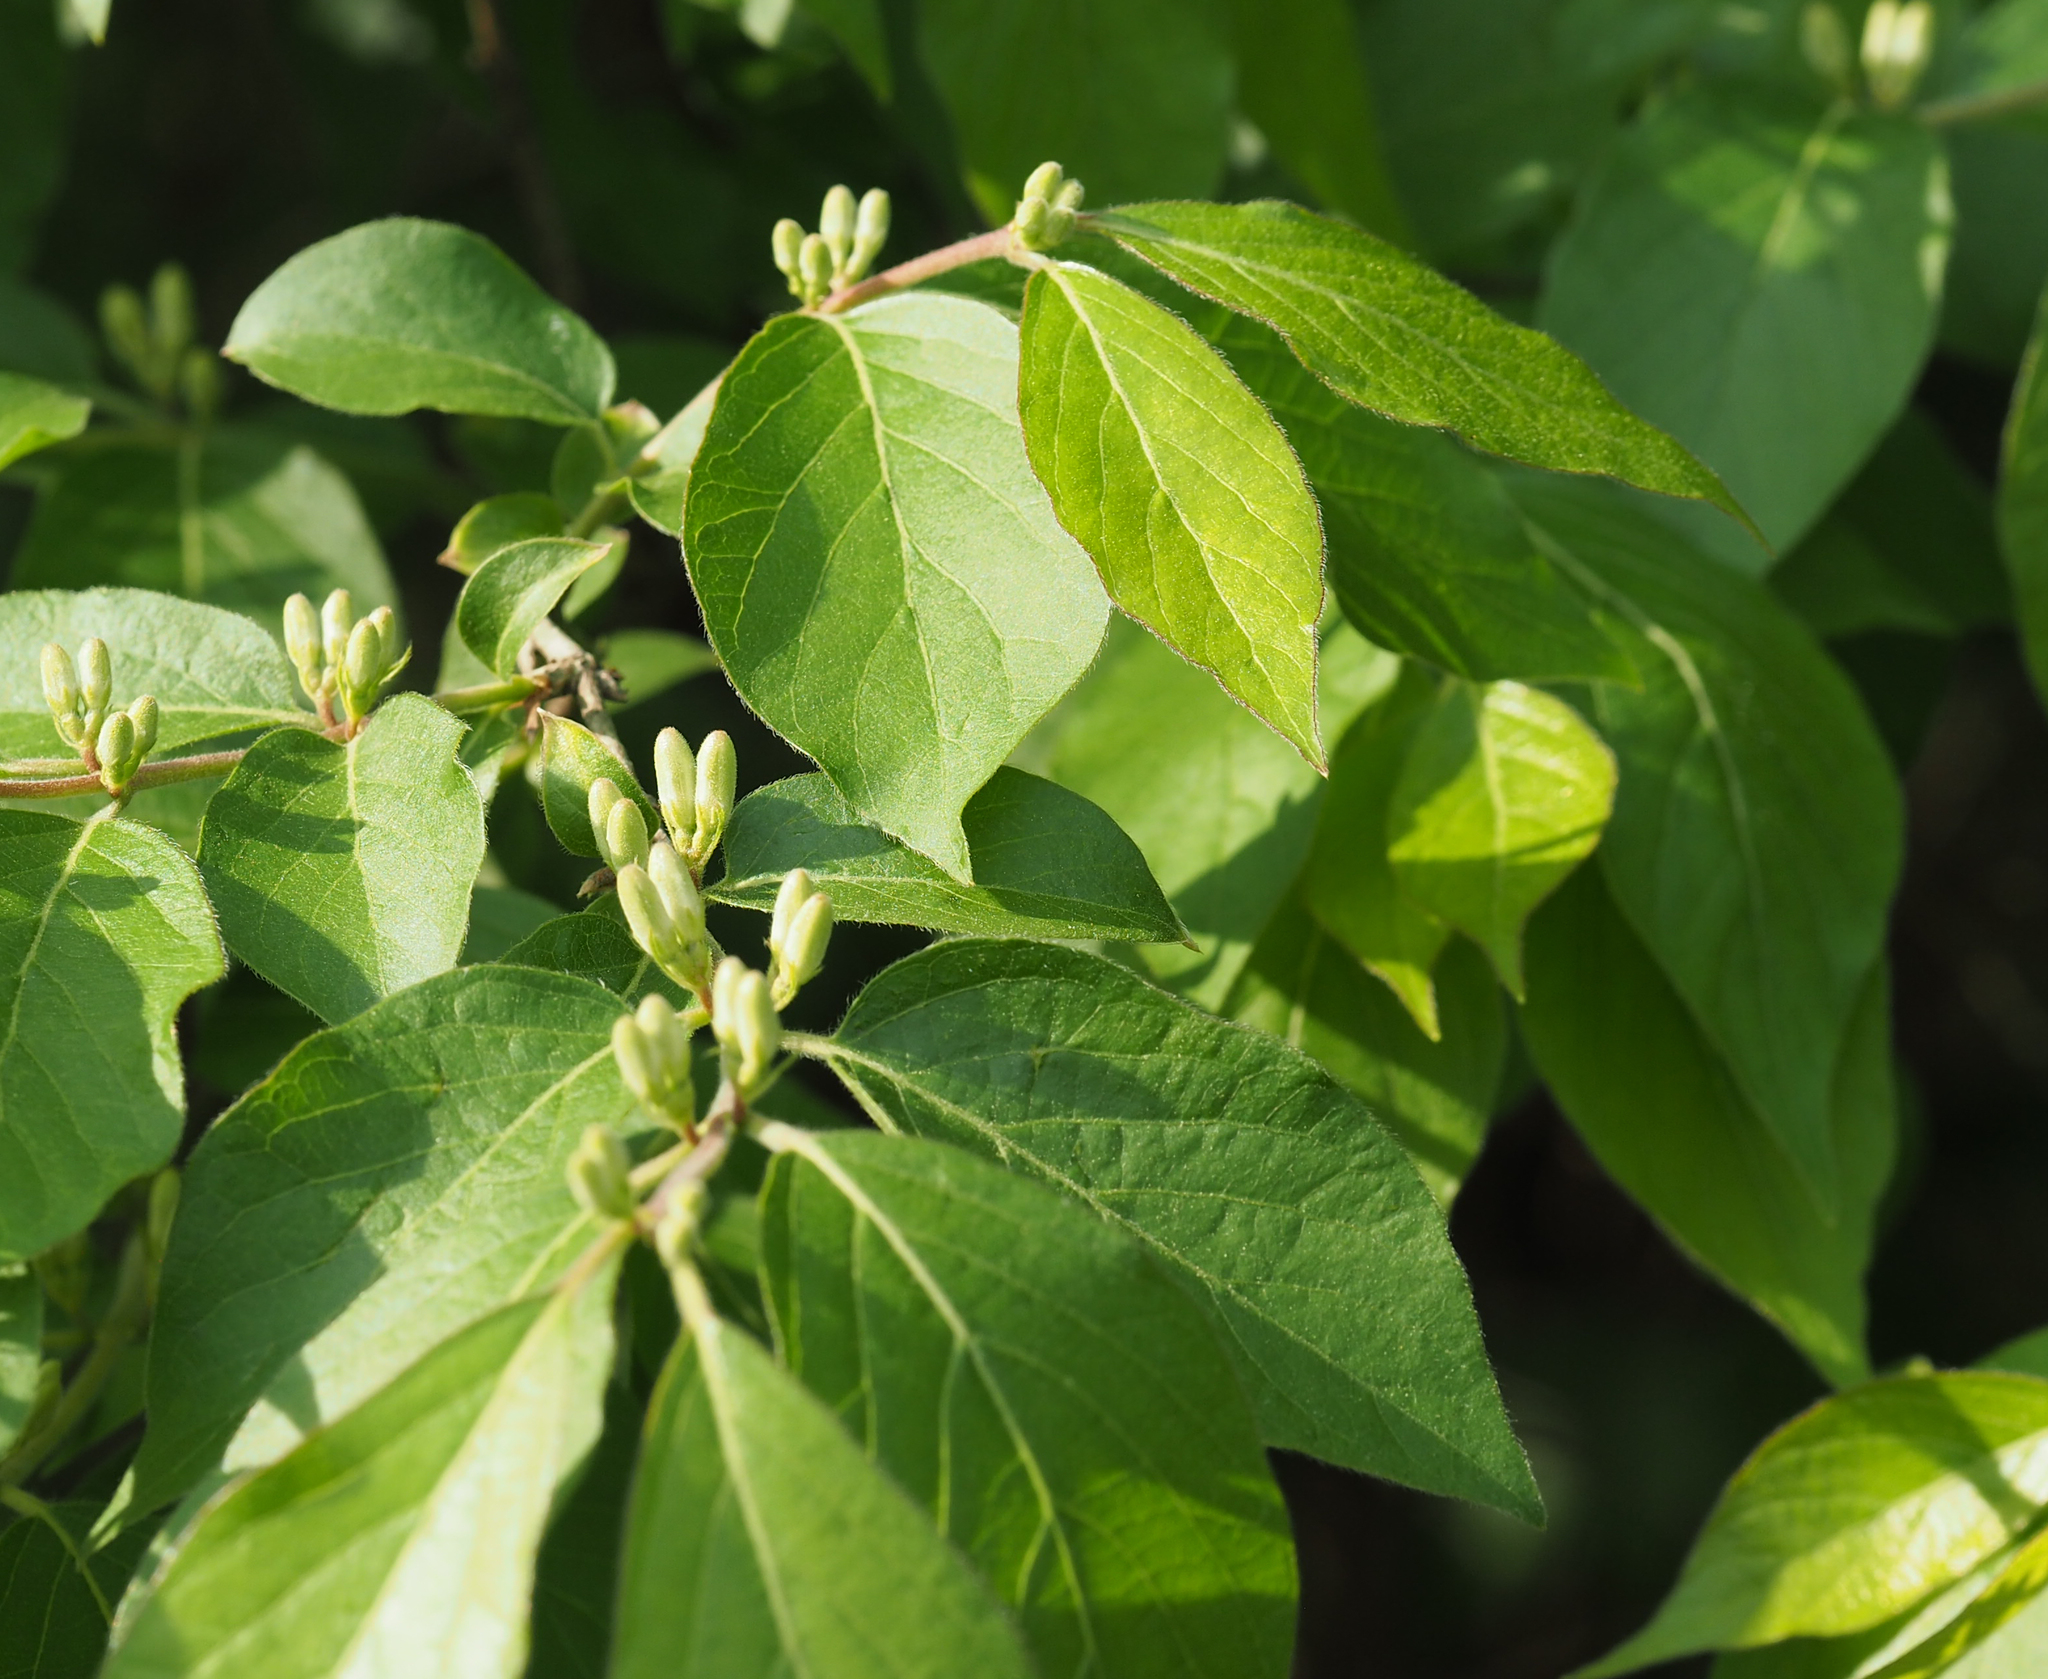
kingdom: Plantae
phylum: Tracheophyta
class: Magnoliopsida
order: Dipsacales
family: Caprifoliaceae
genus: Lonicera
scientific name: Lonicera maackii
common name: Amur honeysuckle
